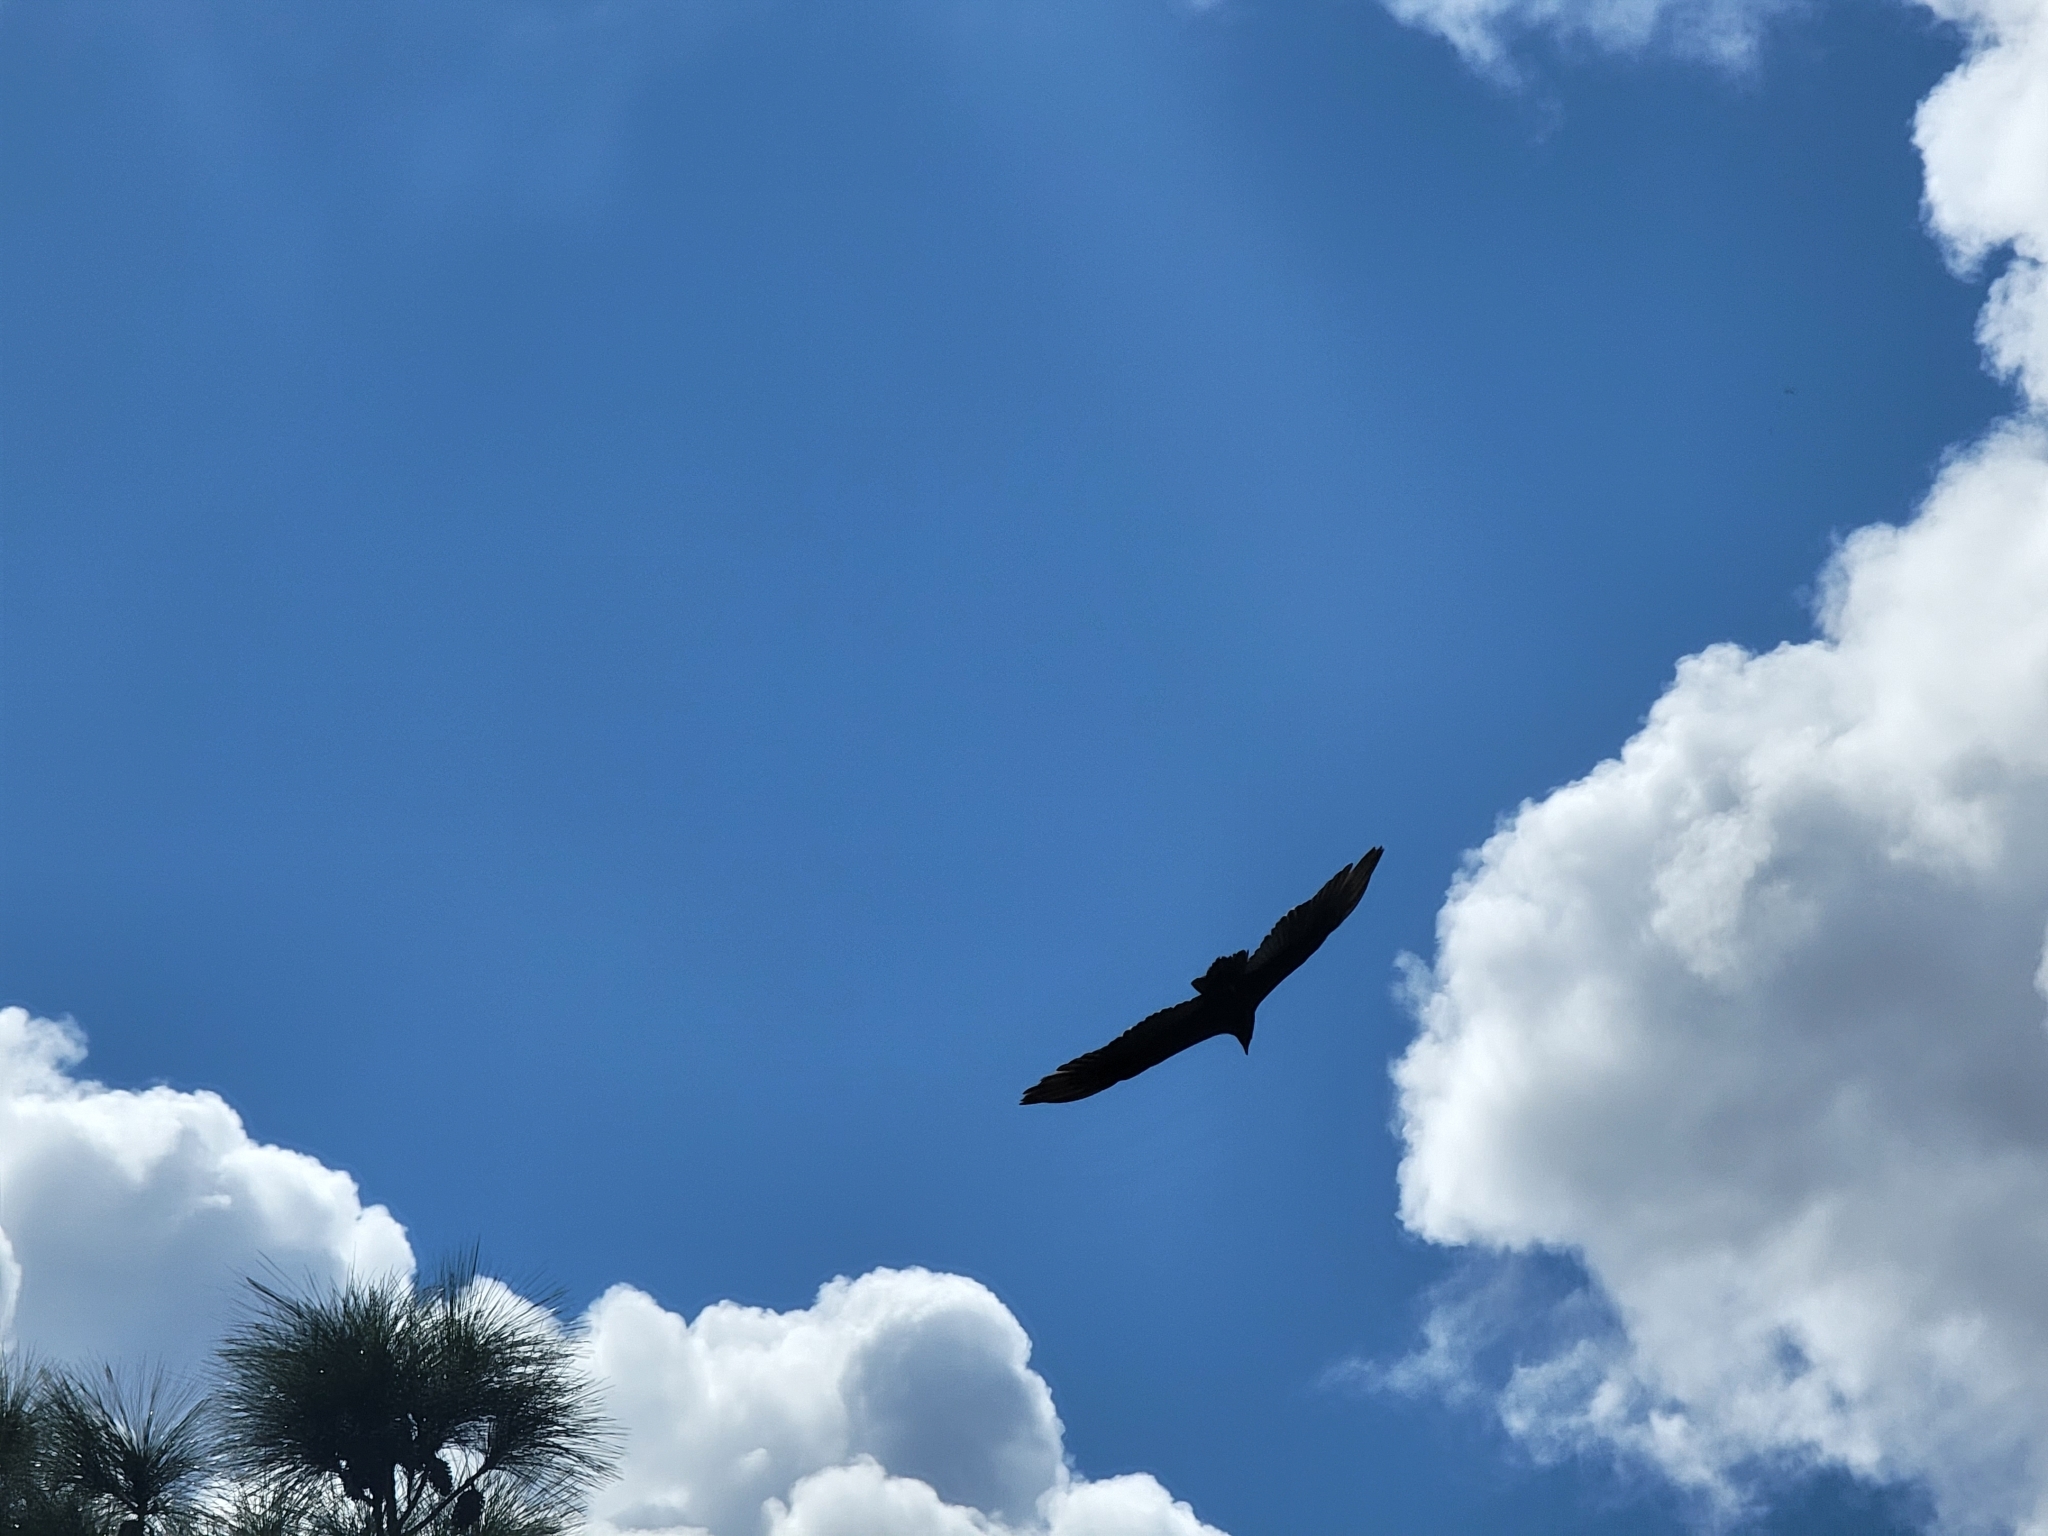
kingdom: Animalia
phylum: Chordata
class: Aves
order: Accipitriformes
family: Cathartidae
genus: Cathartes
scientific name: Cathartes aura
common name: Turkey vulture
